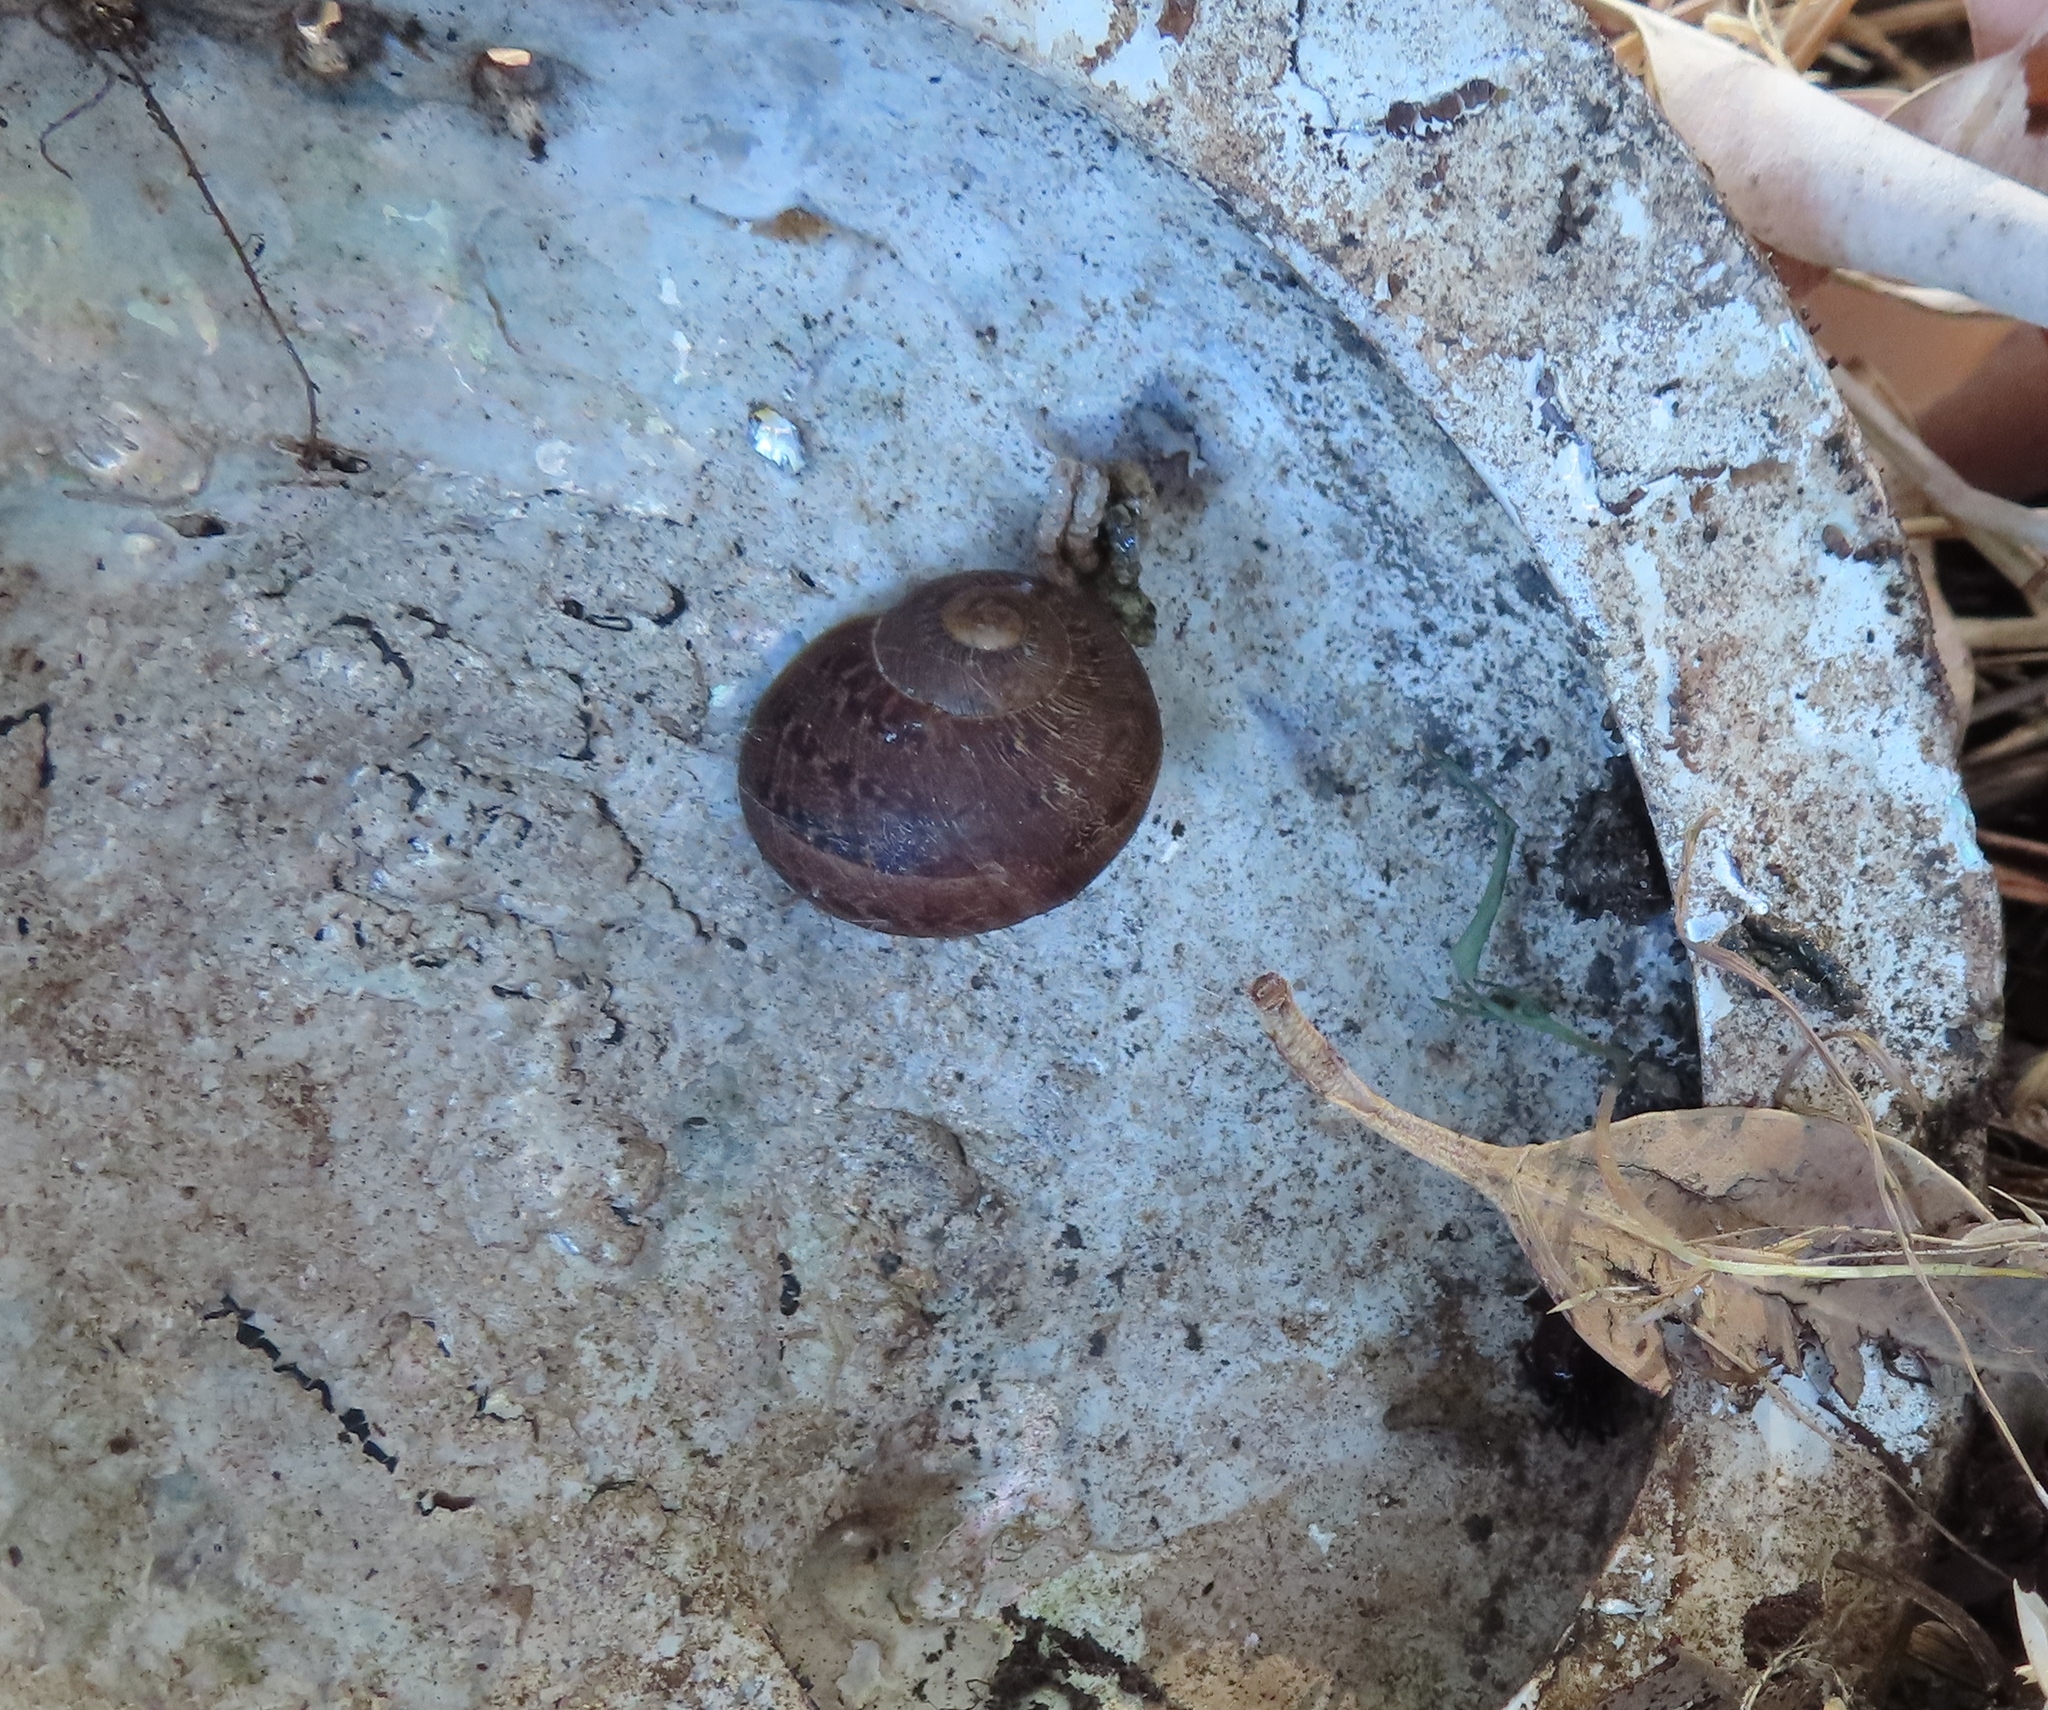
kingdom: Animalia
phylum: Mollusca
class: Gastropoda
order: Stylommatophora
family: Helicidae
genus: Cornu
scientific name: Cornu aspersum
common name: Brown garden snail
